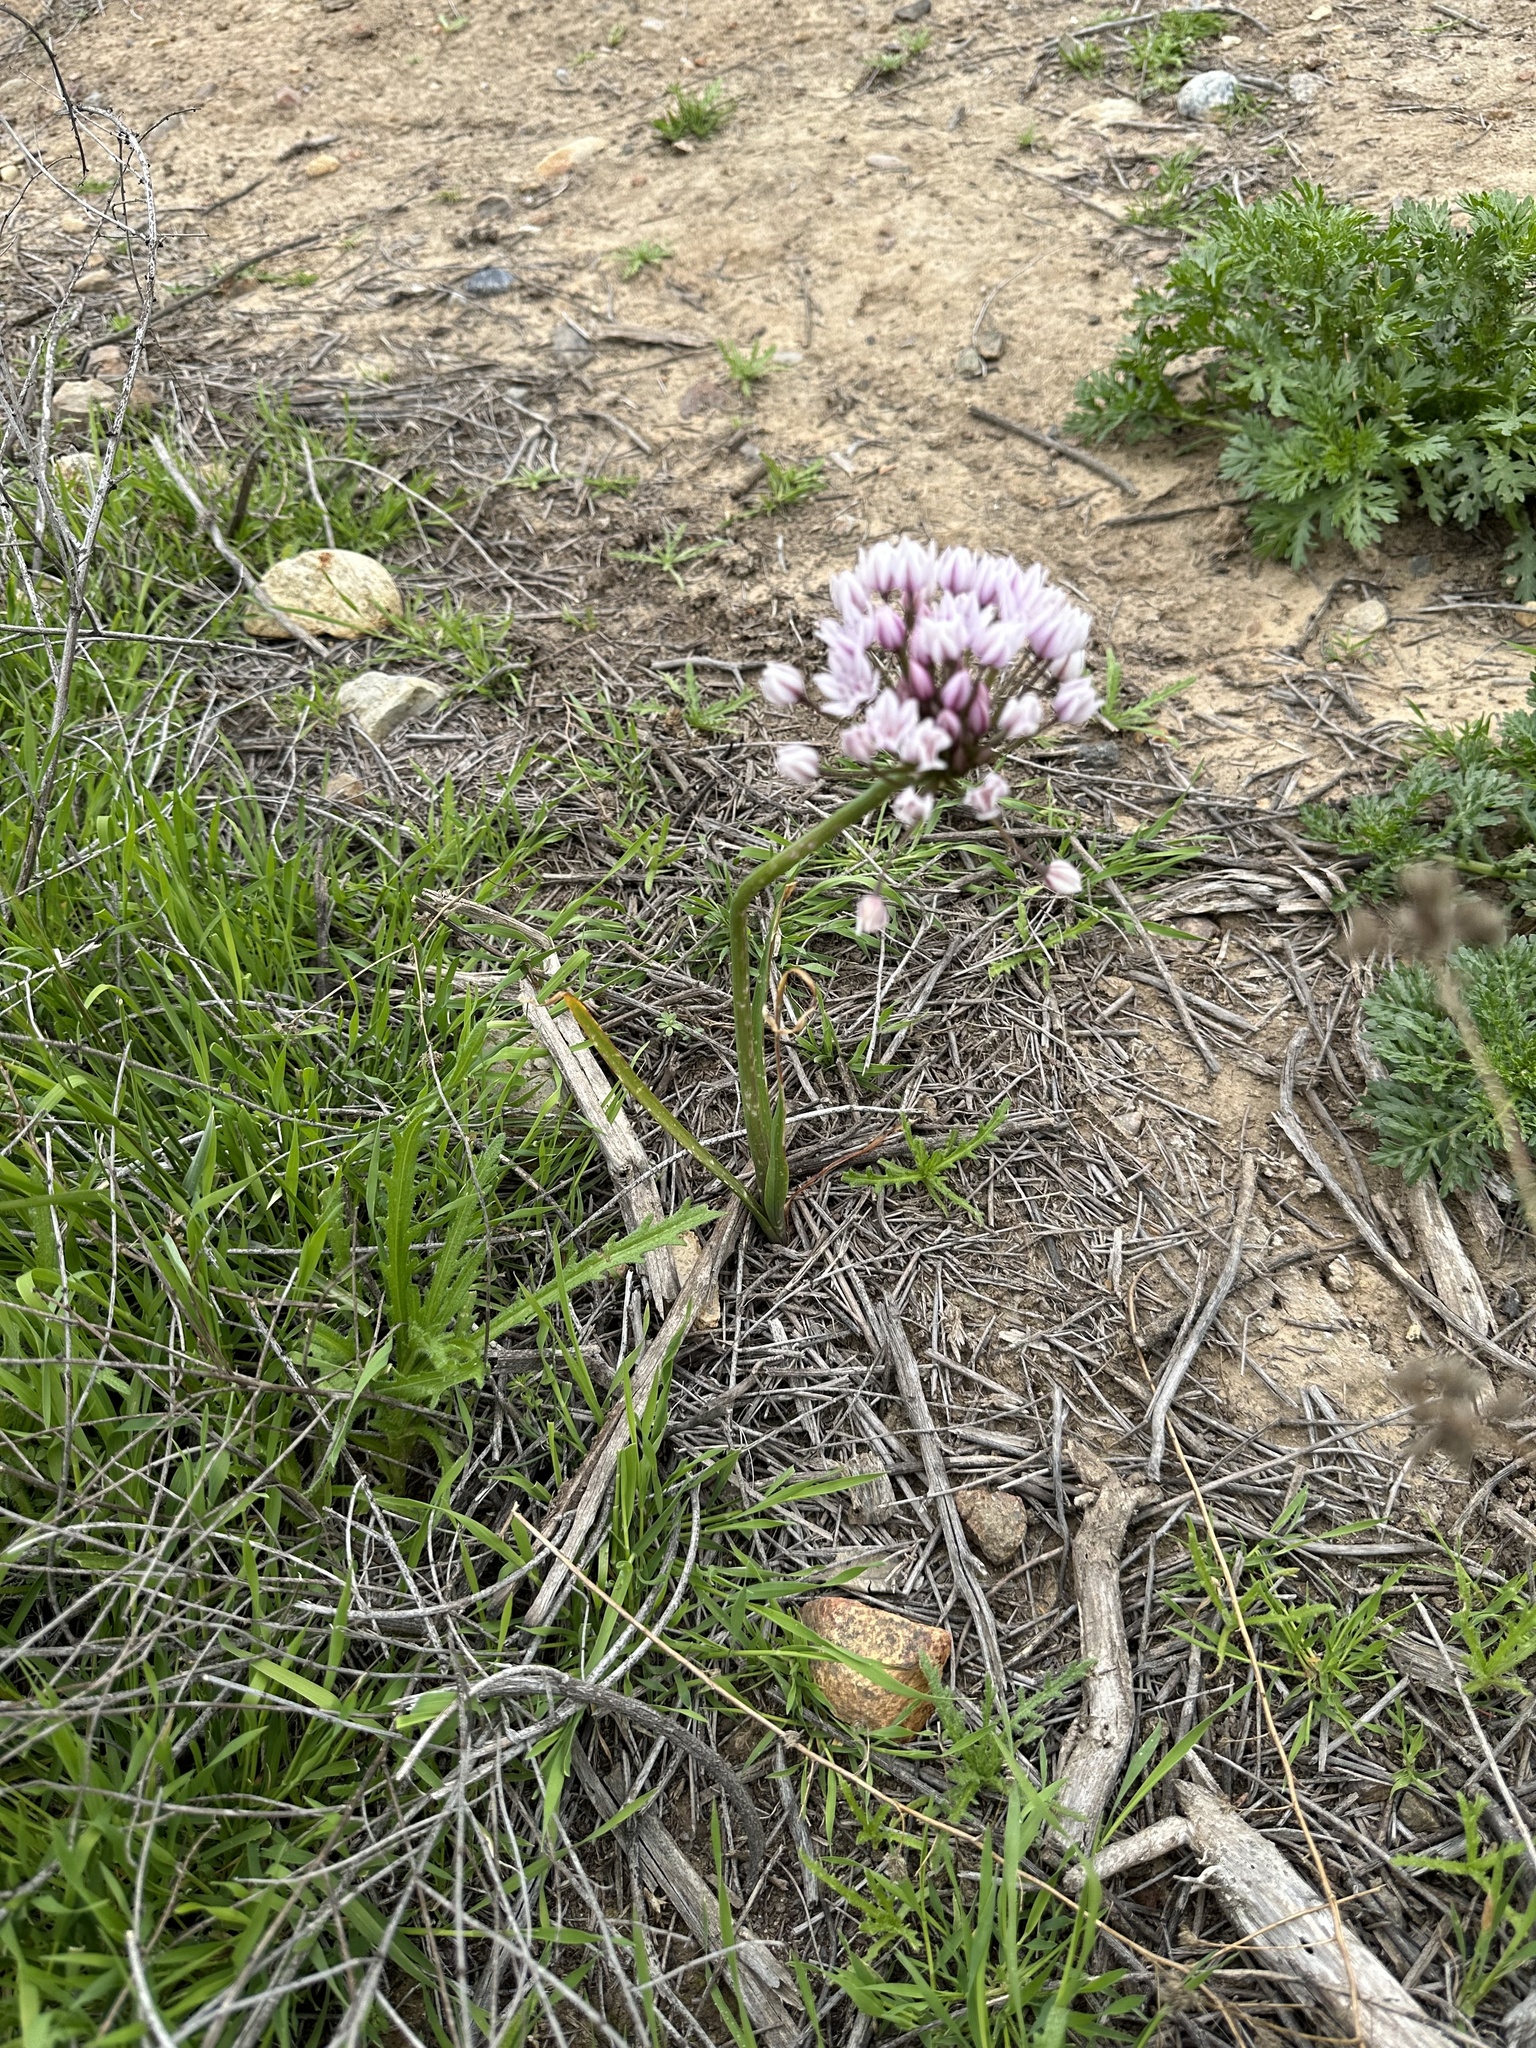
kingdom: Plantae
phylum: Tracheophyta
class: Liliopsida
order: Asparagales
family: Amaryllidaceae
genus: Allium
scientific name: Allium praecox
